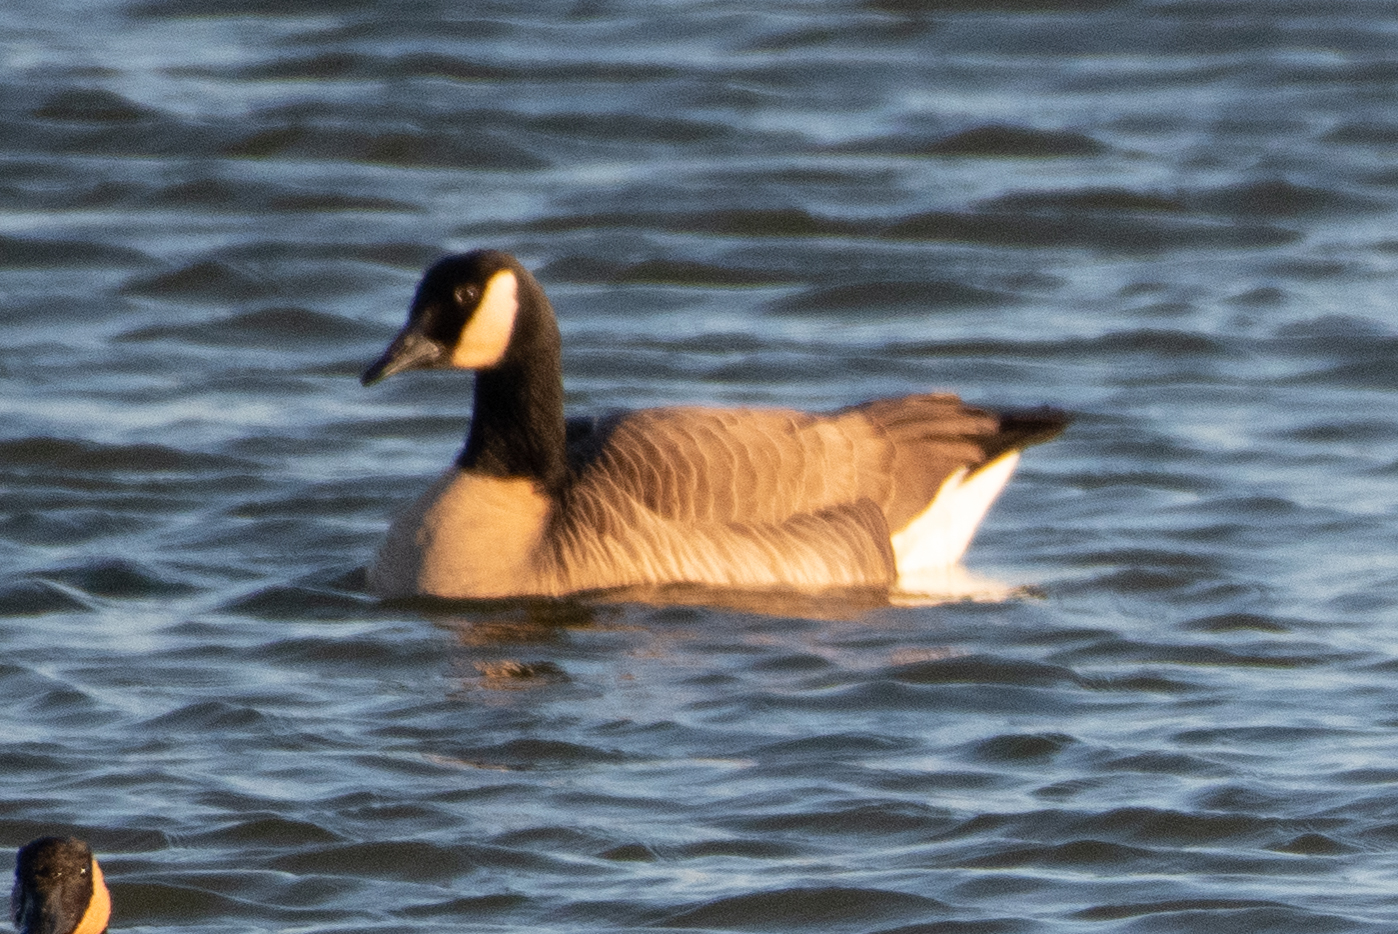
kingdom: Animalia
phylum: Chordata
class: Aves
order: Anseriformes
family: Anatidae
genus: Branta
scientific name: Branta canadensis
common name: Canada goose
